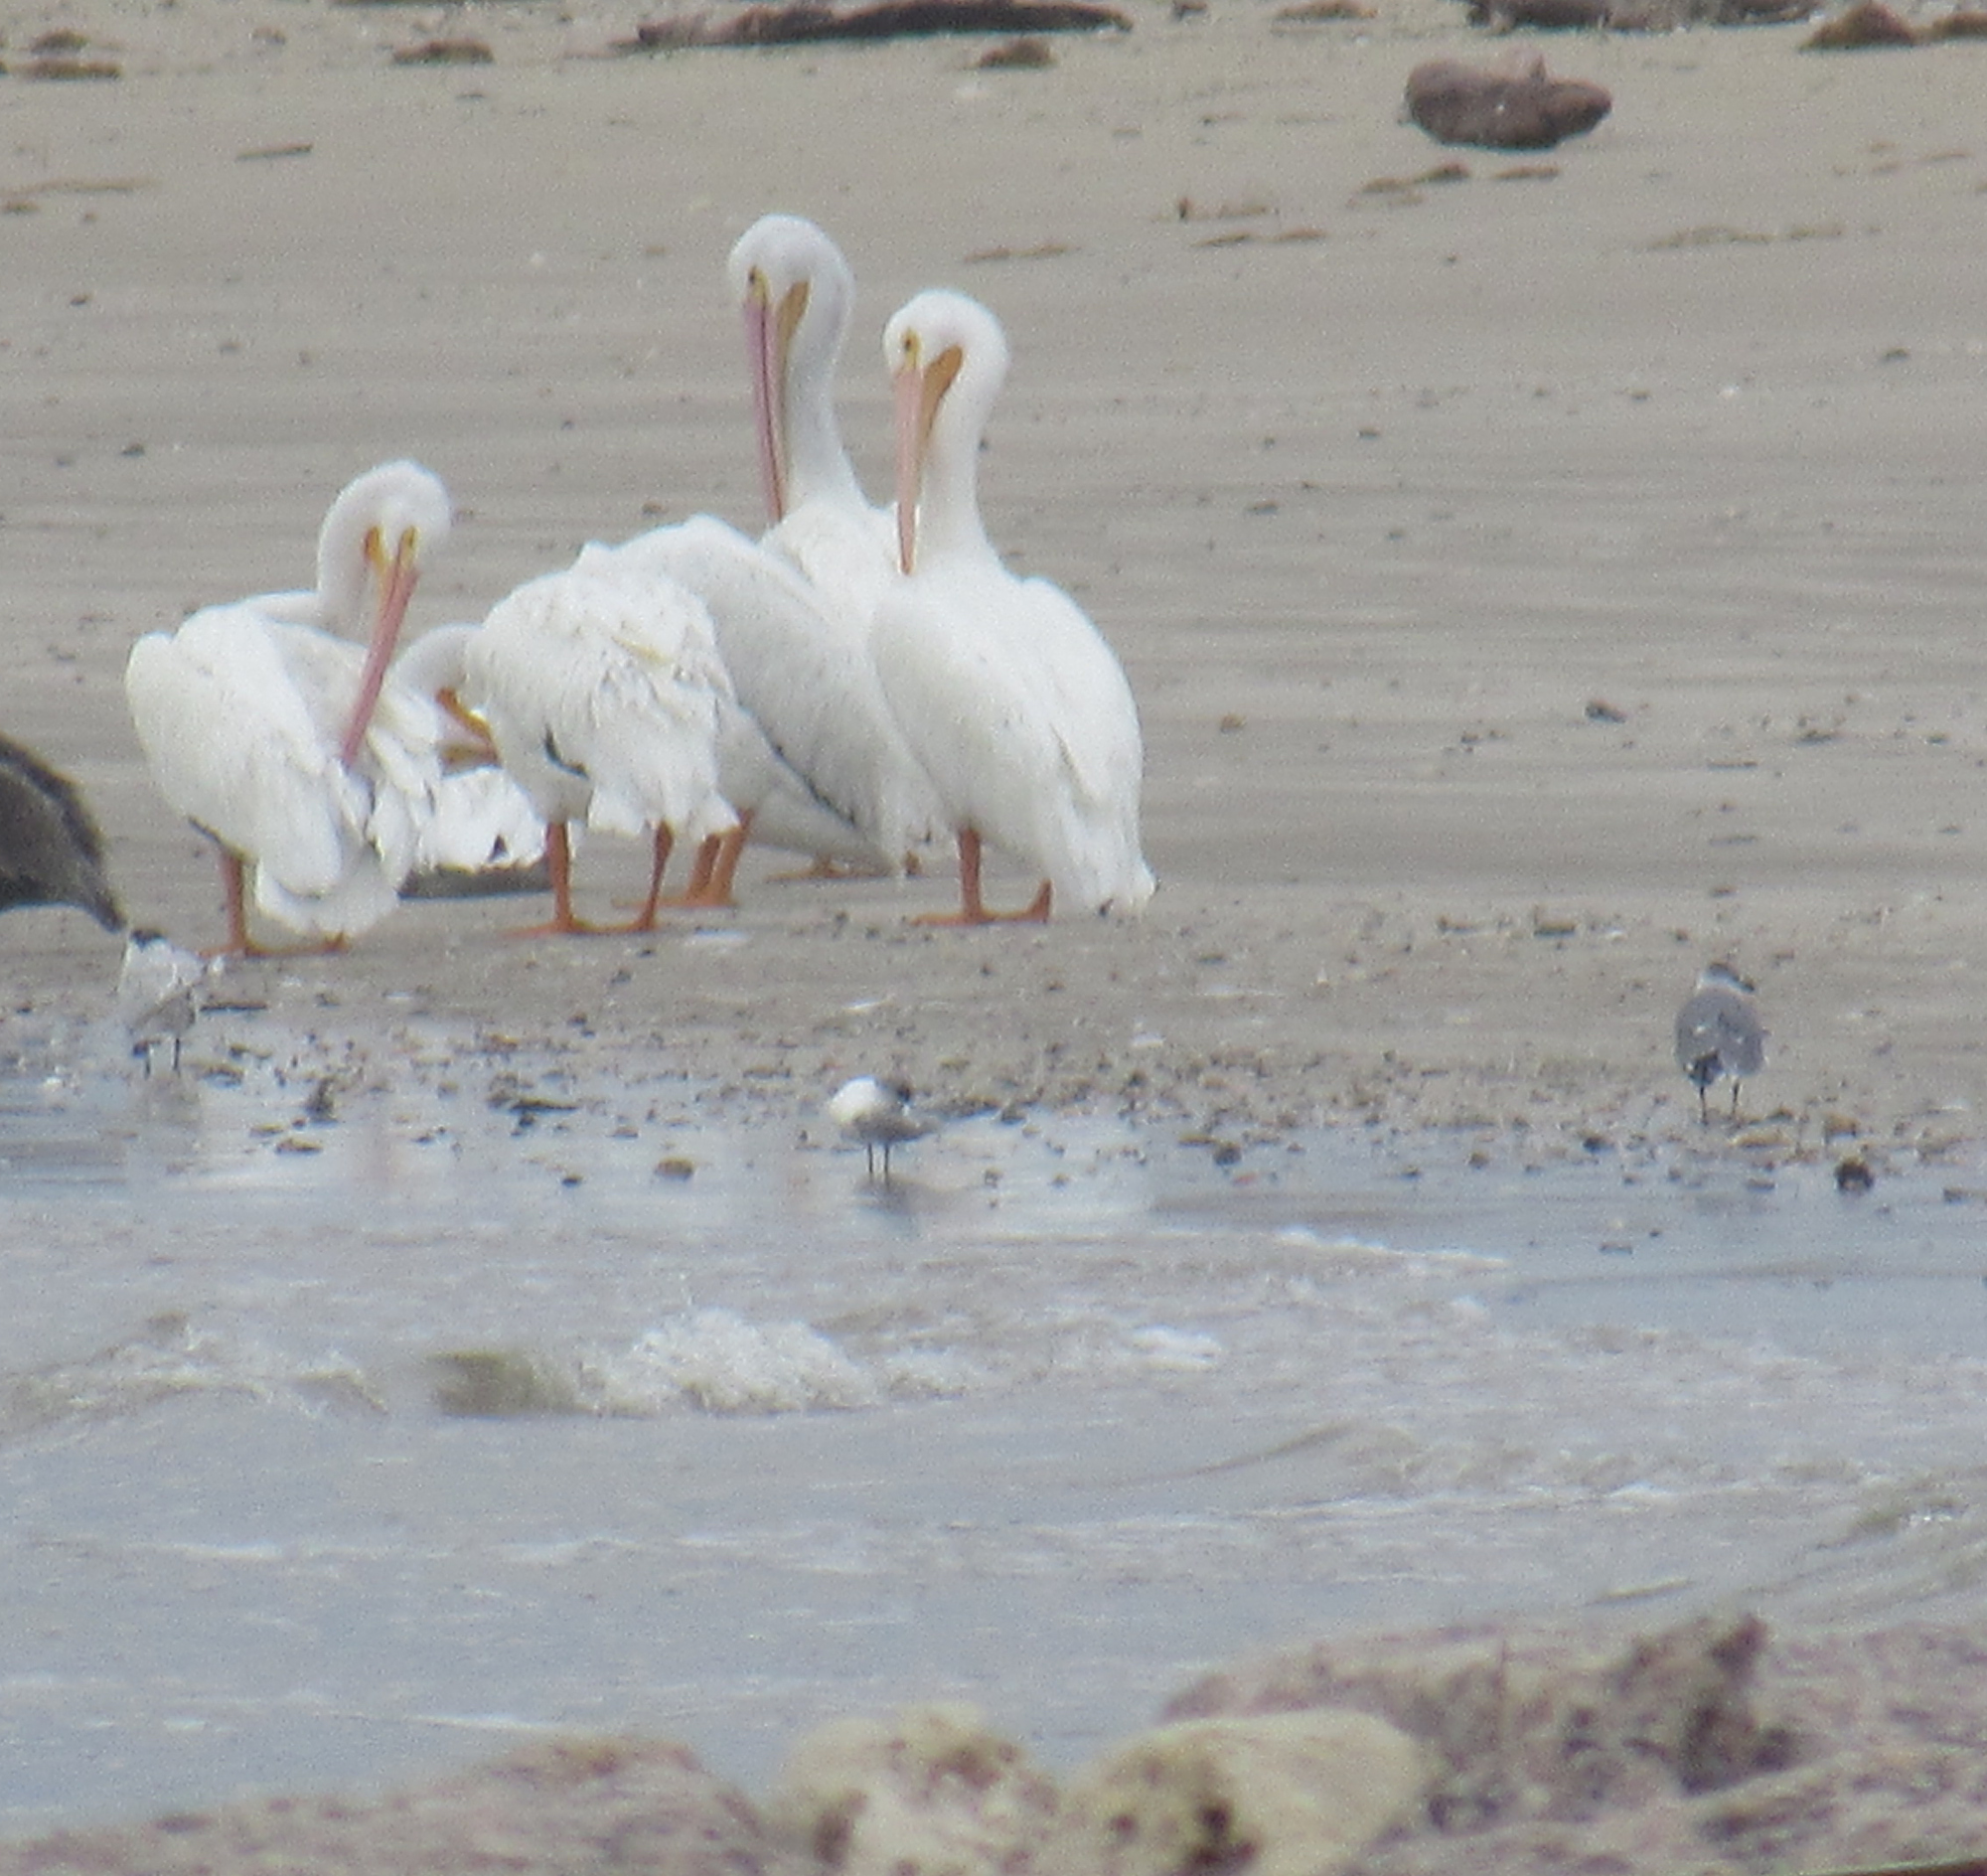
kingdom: Animalia
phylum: Chordata
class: Aves
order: Pelecaniformes
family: Pelecanidae
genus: Pelecanus
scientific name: Pelecanus erythrorhynchos
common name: American white pelican
